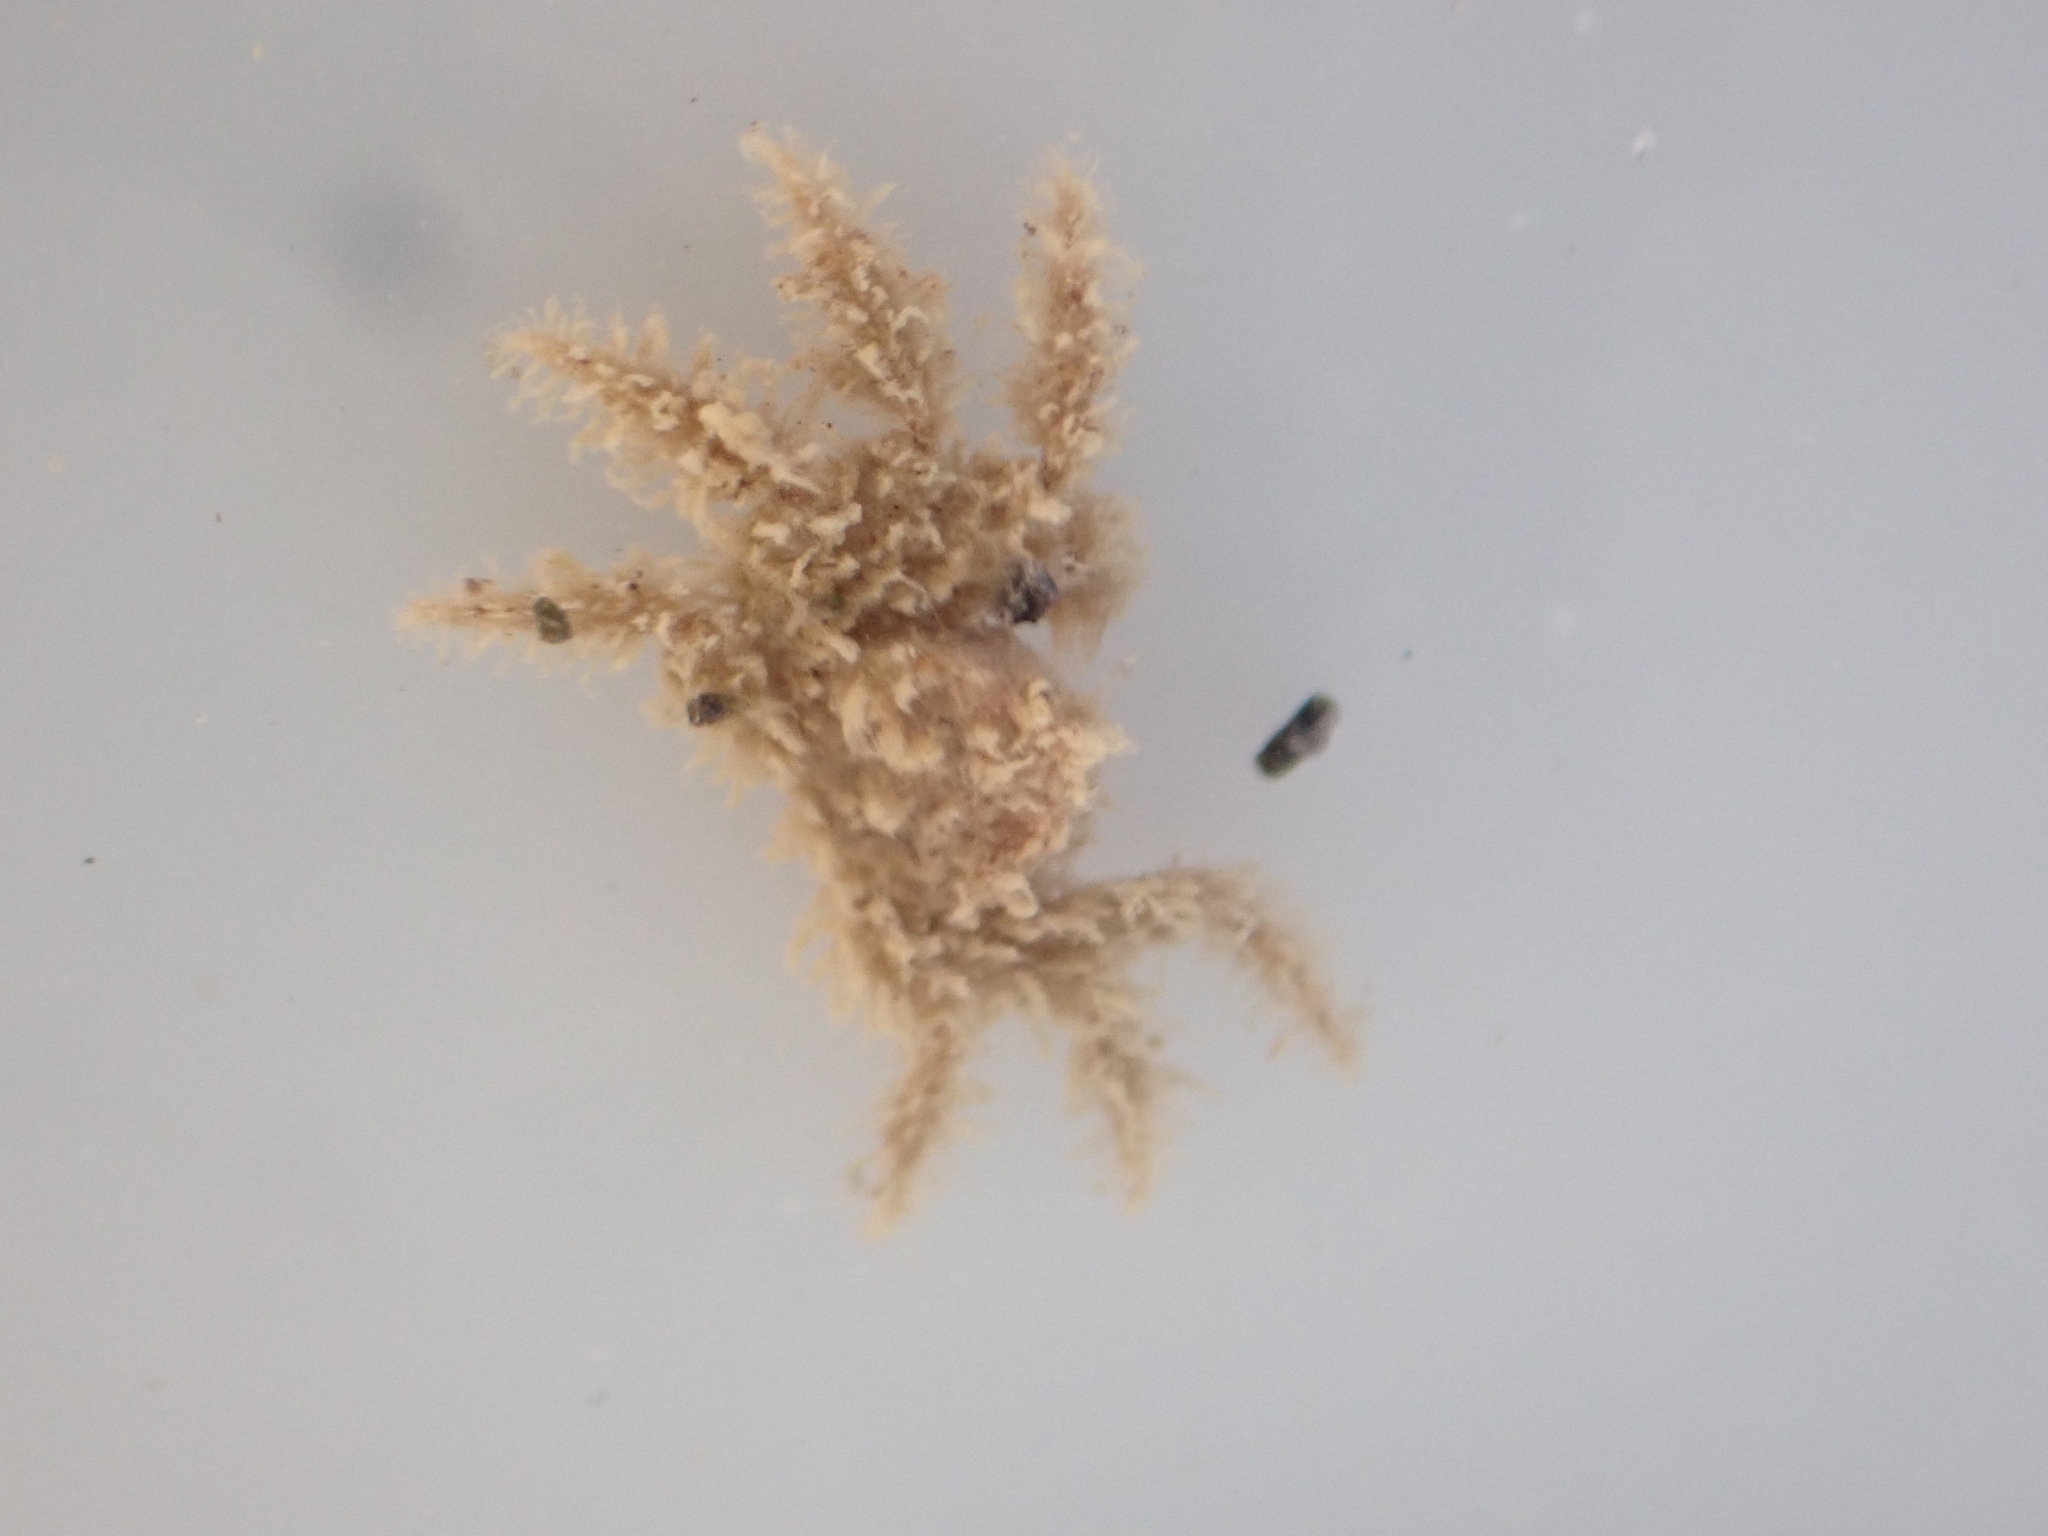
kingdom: Animalia
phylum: Arthropoda
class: Malacostraca
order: Decapoda
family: Hymenosomatidae
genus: Neohymenicus
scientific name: Neohymenicus pubescens
